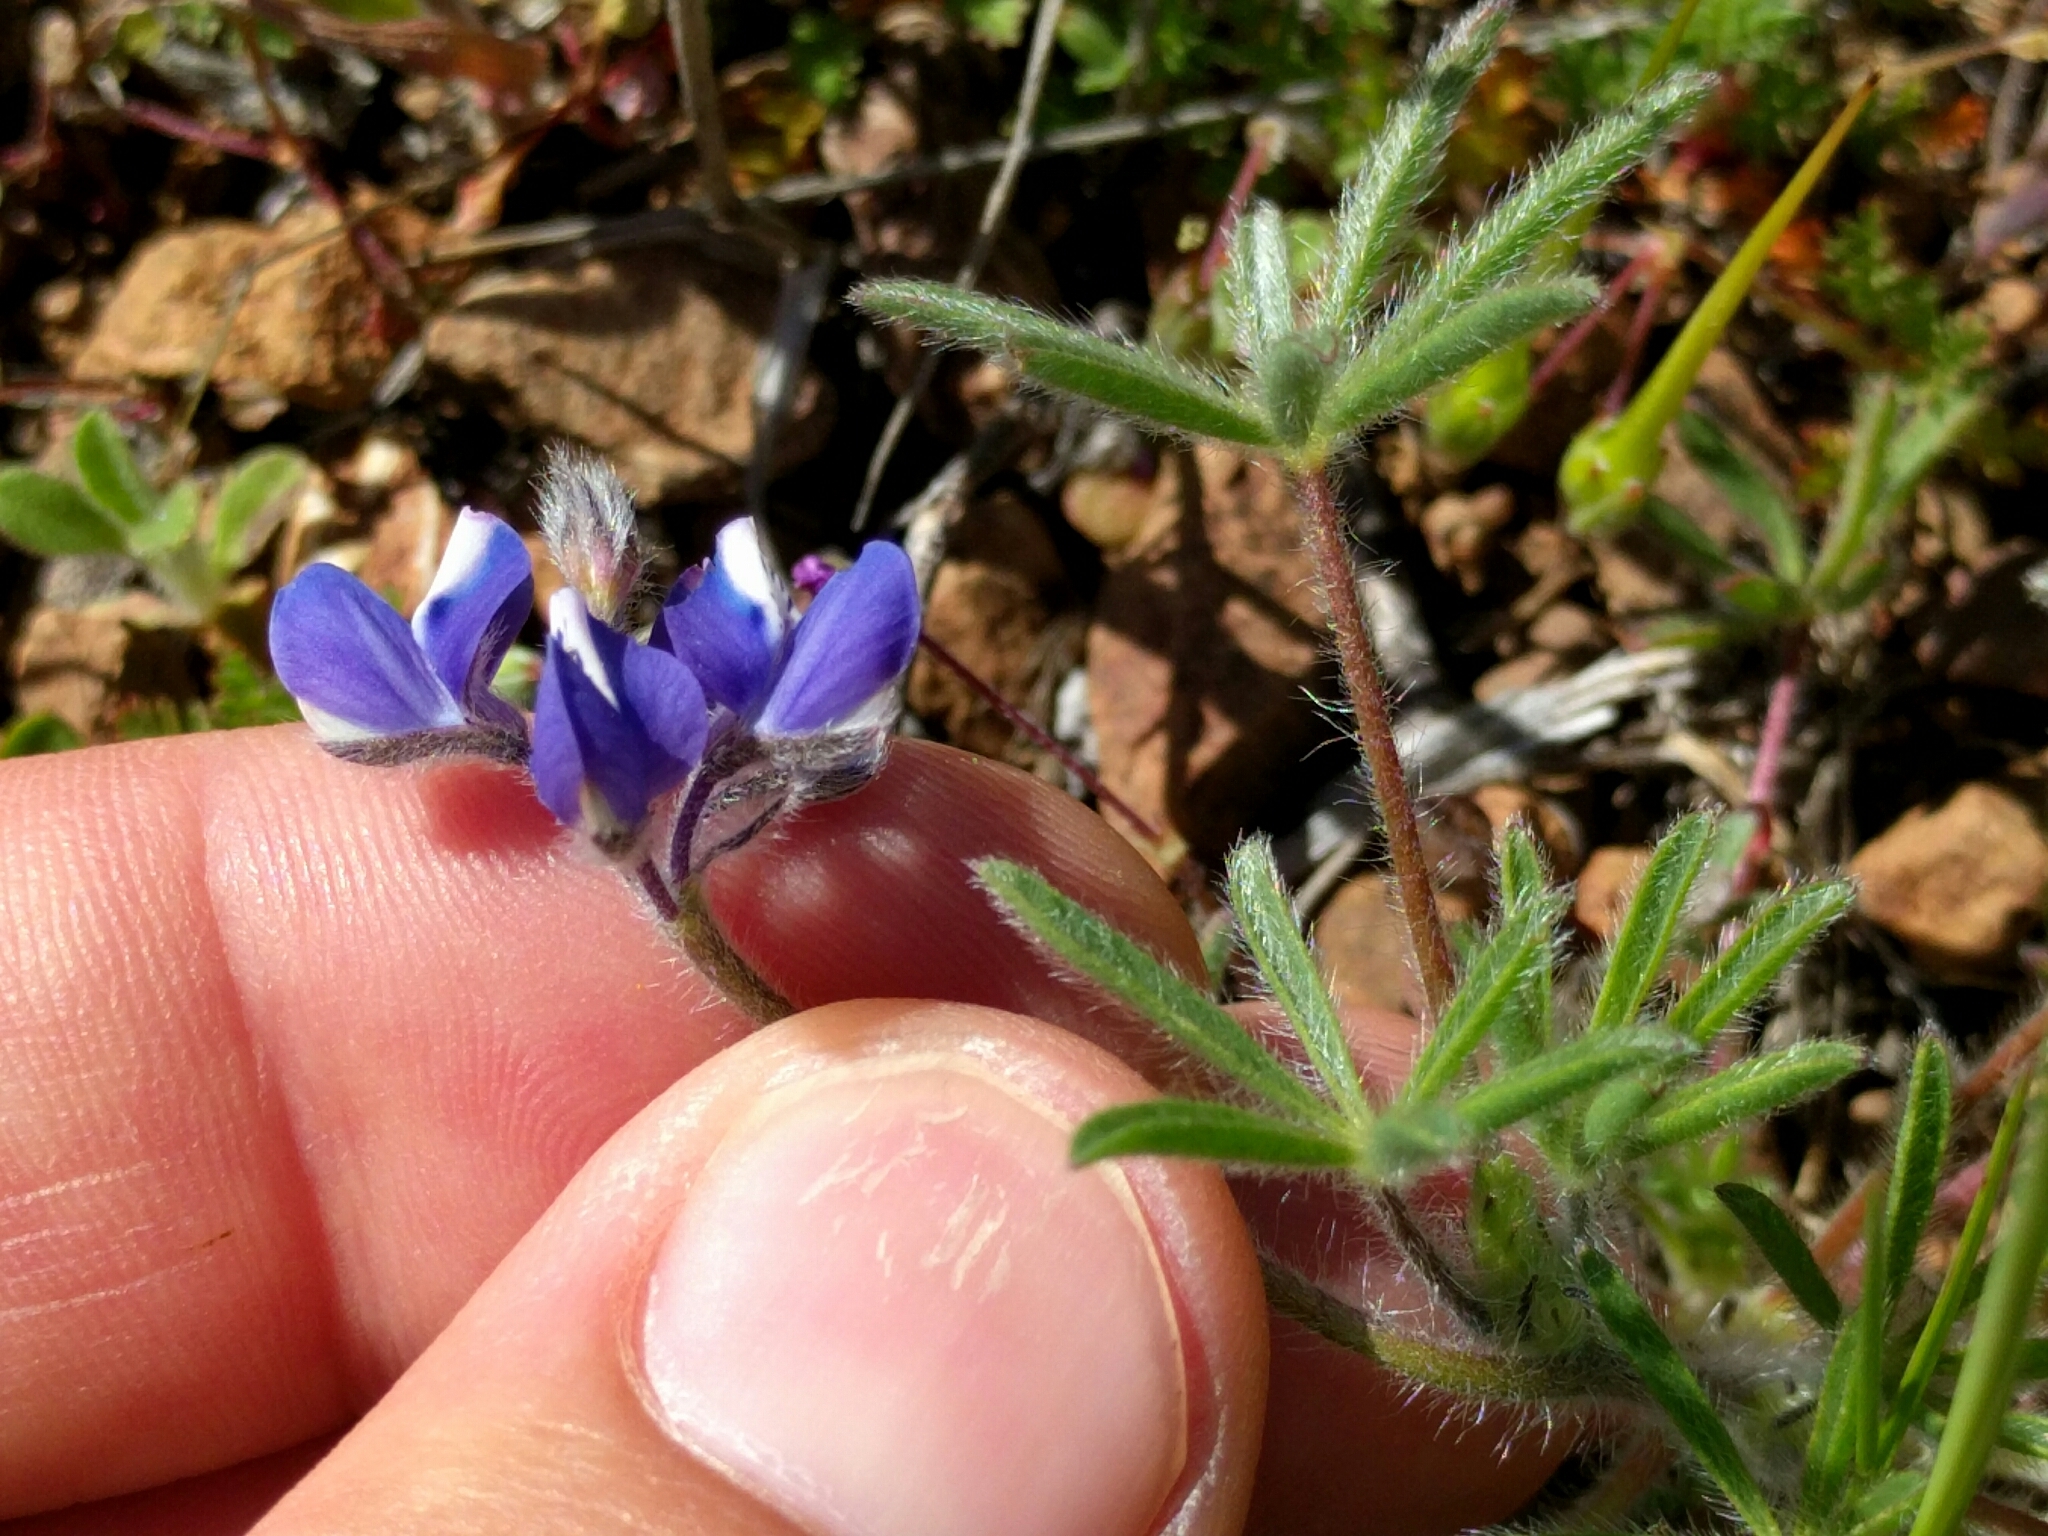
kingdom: Plantae
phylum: Tracheophyta
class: Magnoliopsida
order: Fabales
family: Fabaceae
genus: Lupinus
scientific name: Lupinus bicolor
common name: Miniature lupine
